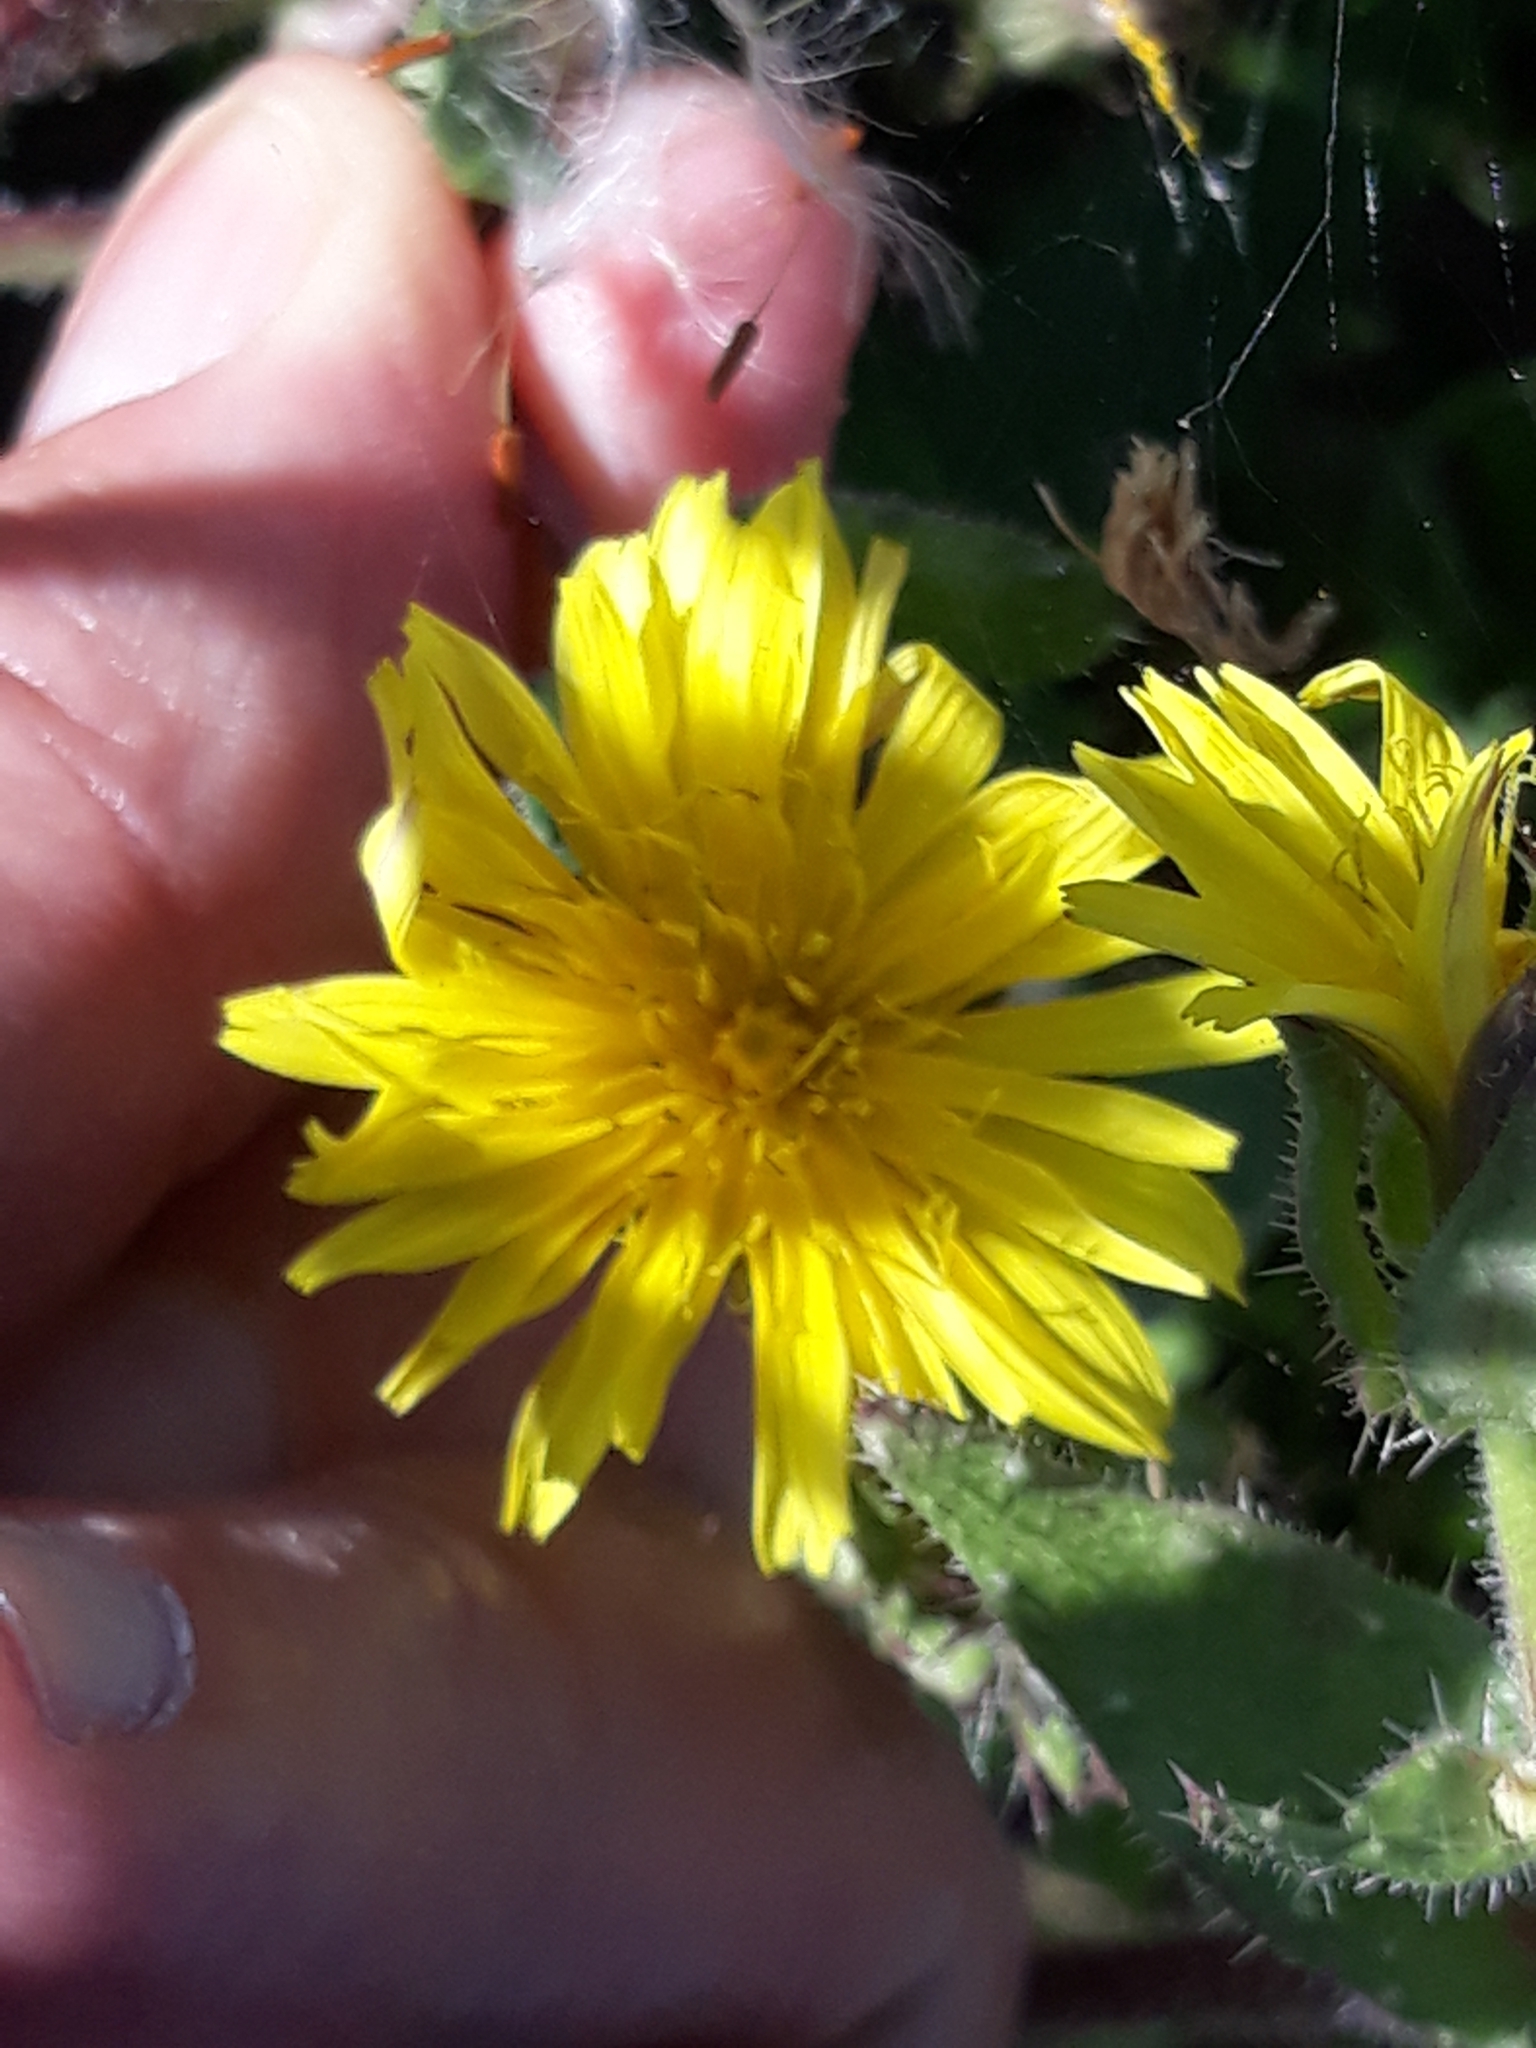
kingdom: Plantae
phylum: Tracheophyta
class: Magnoliopsida
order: Asterales
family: Asteraceae
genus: Helminthotheca
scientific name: Helminthotheca echioides
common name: Ox-tongue
